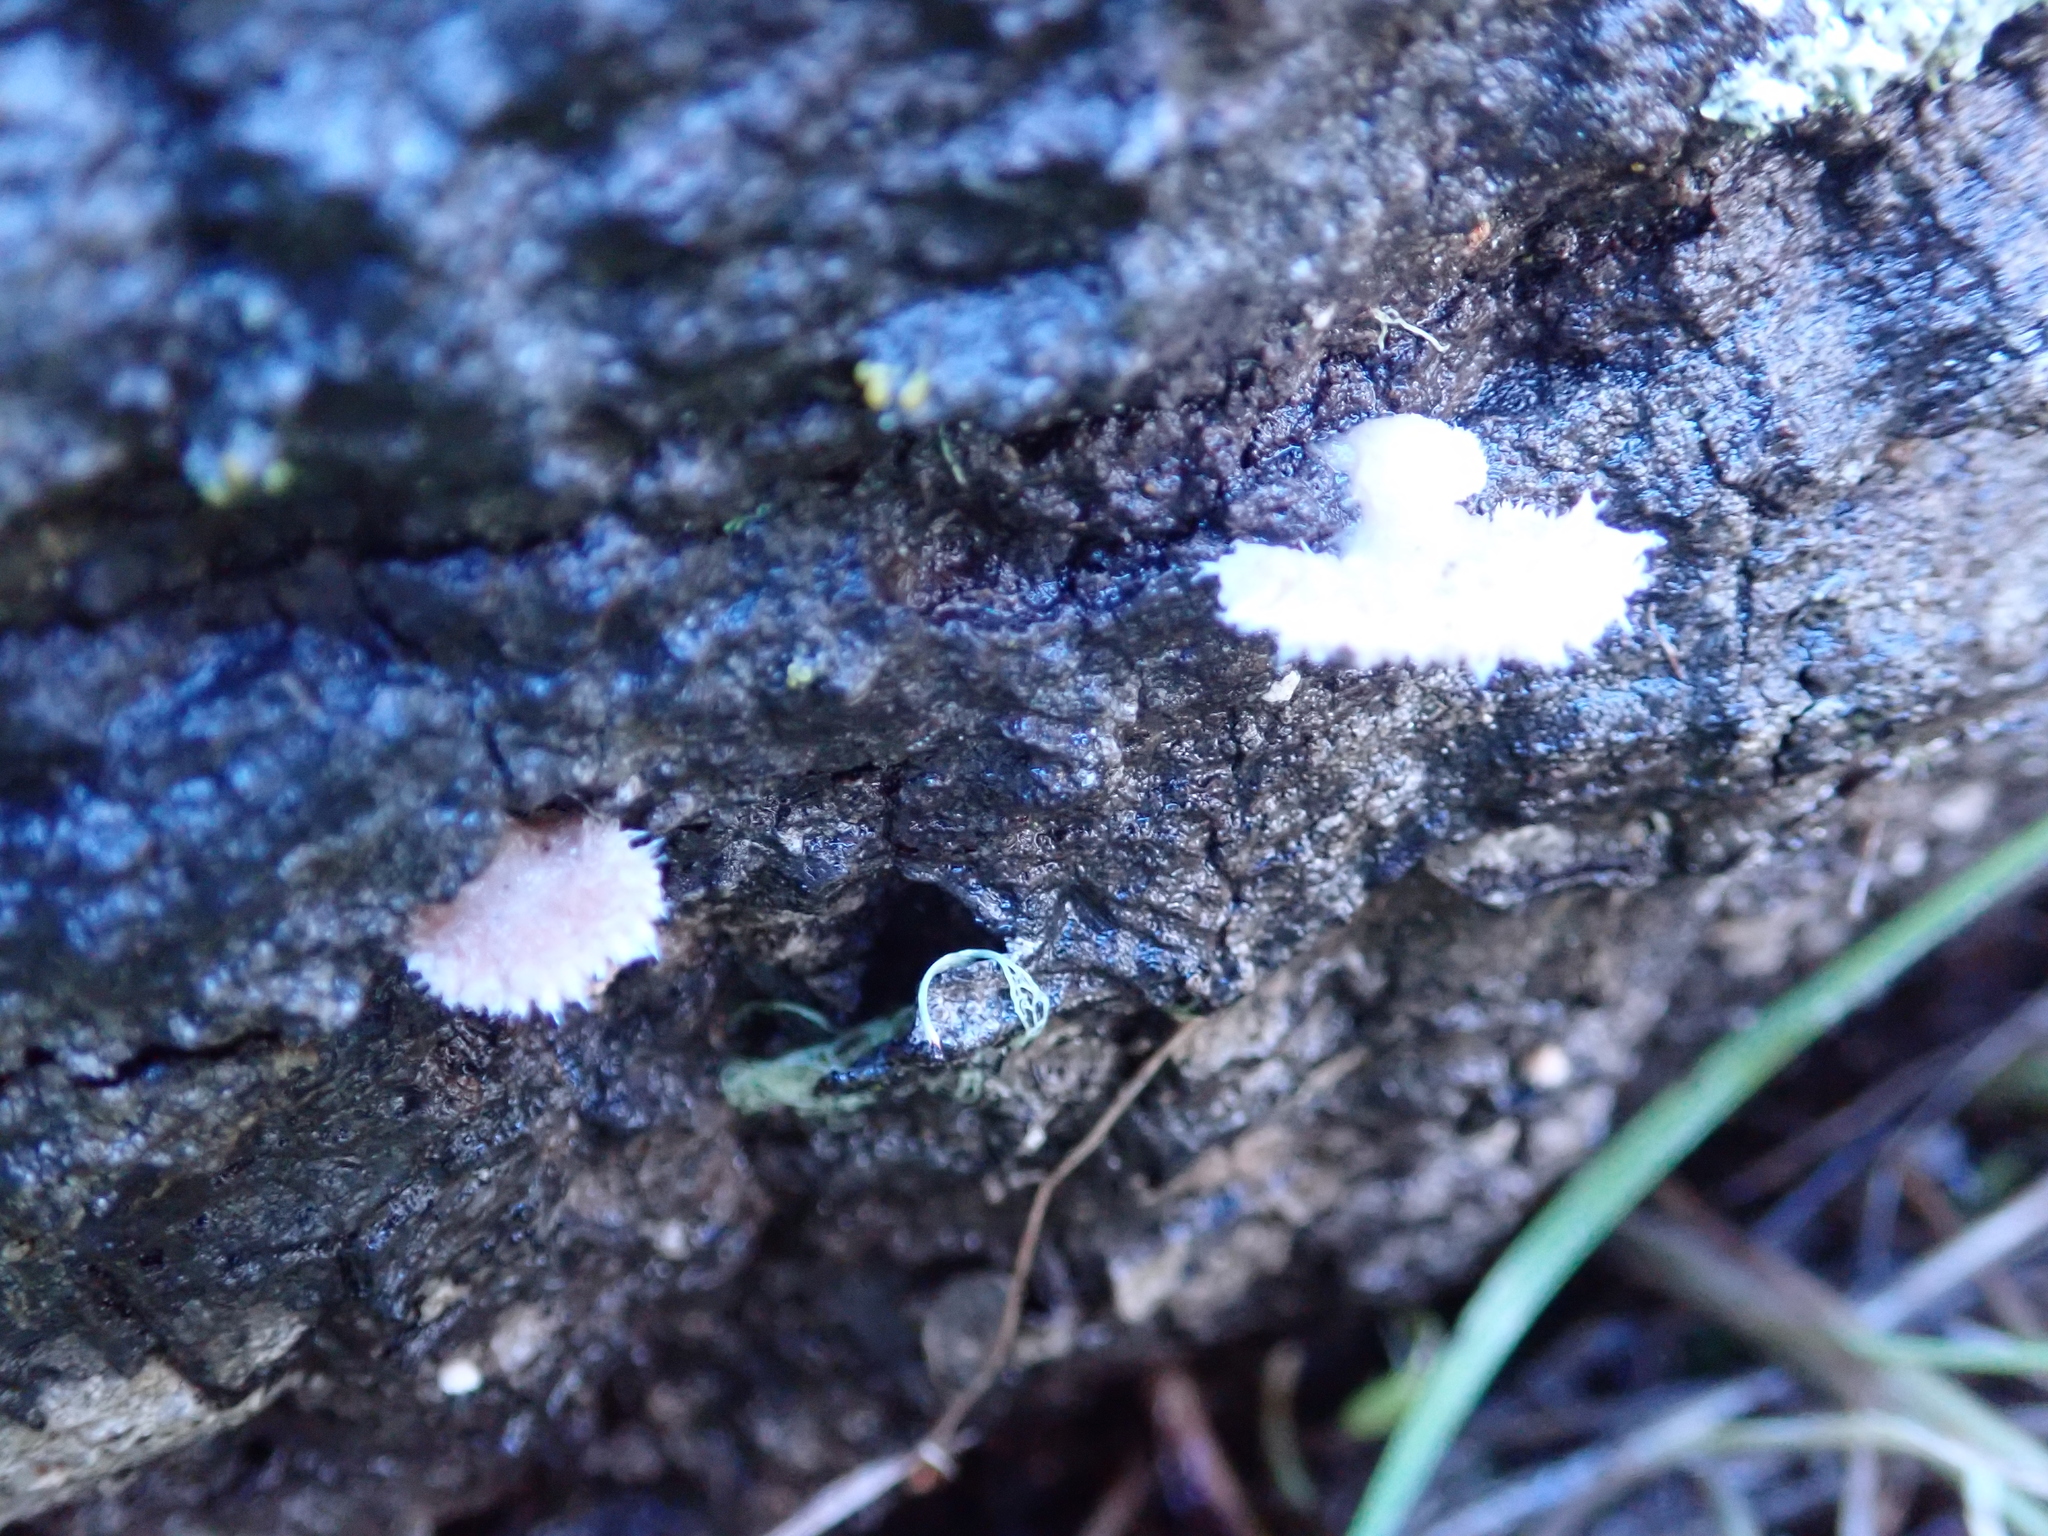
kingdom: Fungi
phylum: Basidiomycota
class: Agaricomycetes
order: Agaricales
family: Schizophyllaceae
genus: Schizophyllum
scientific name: Schizophyllum commune
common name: Common porecrust
